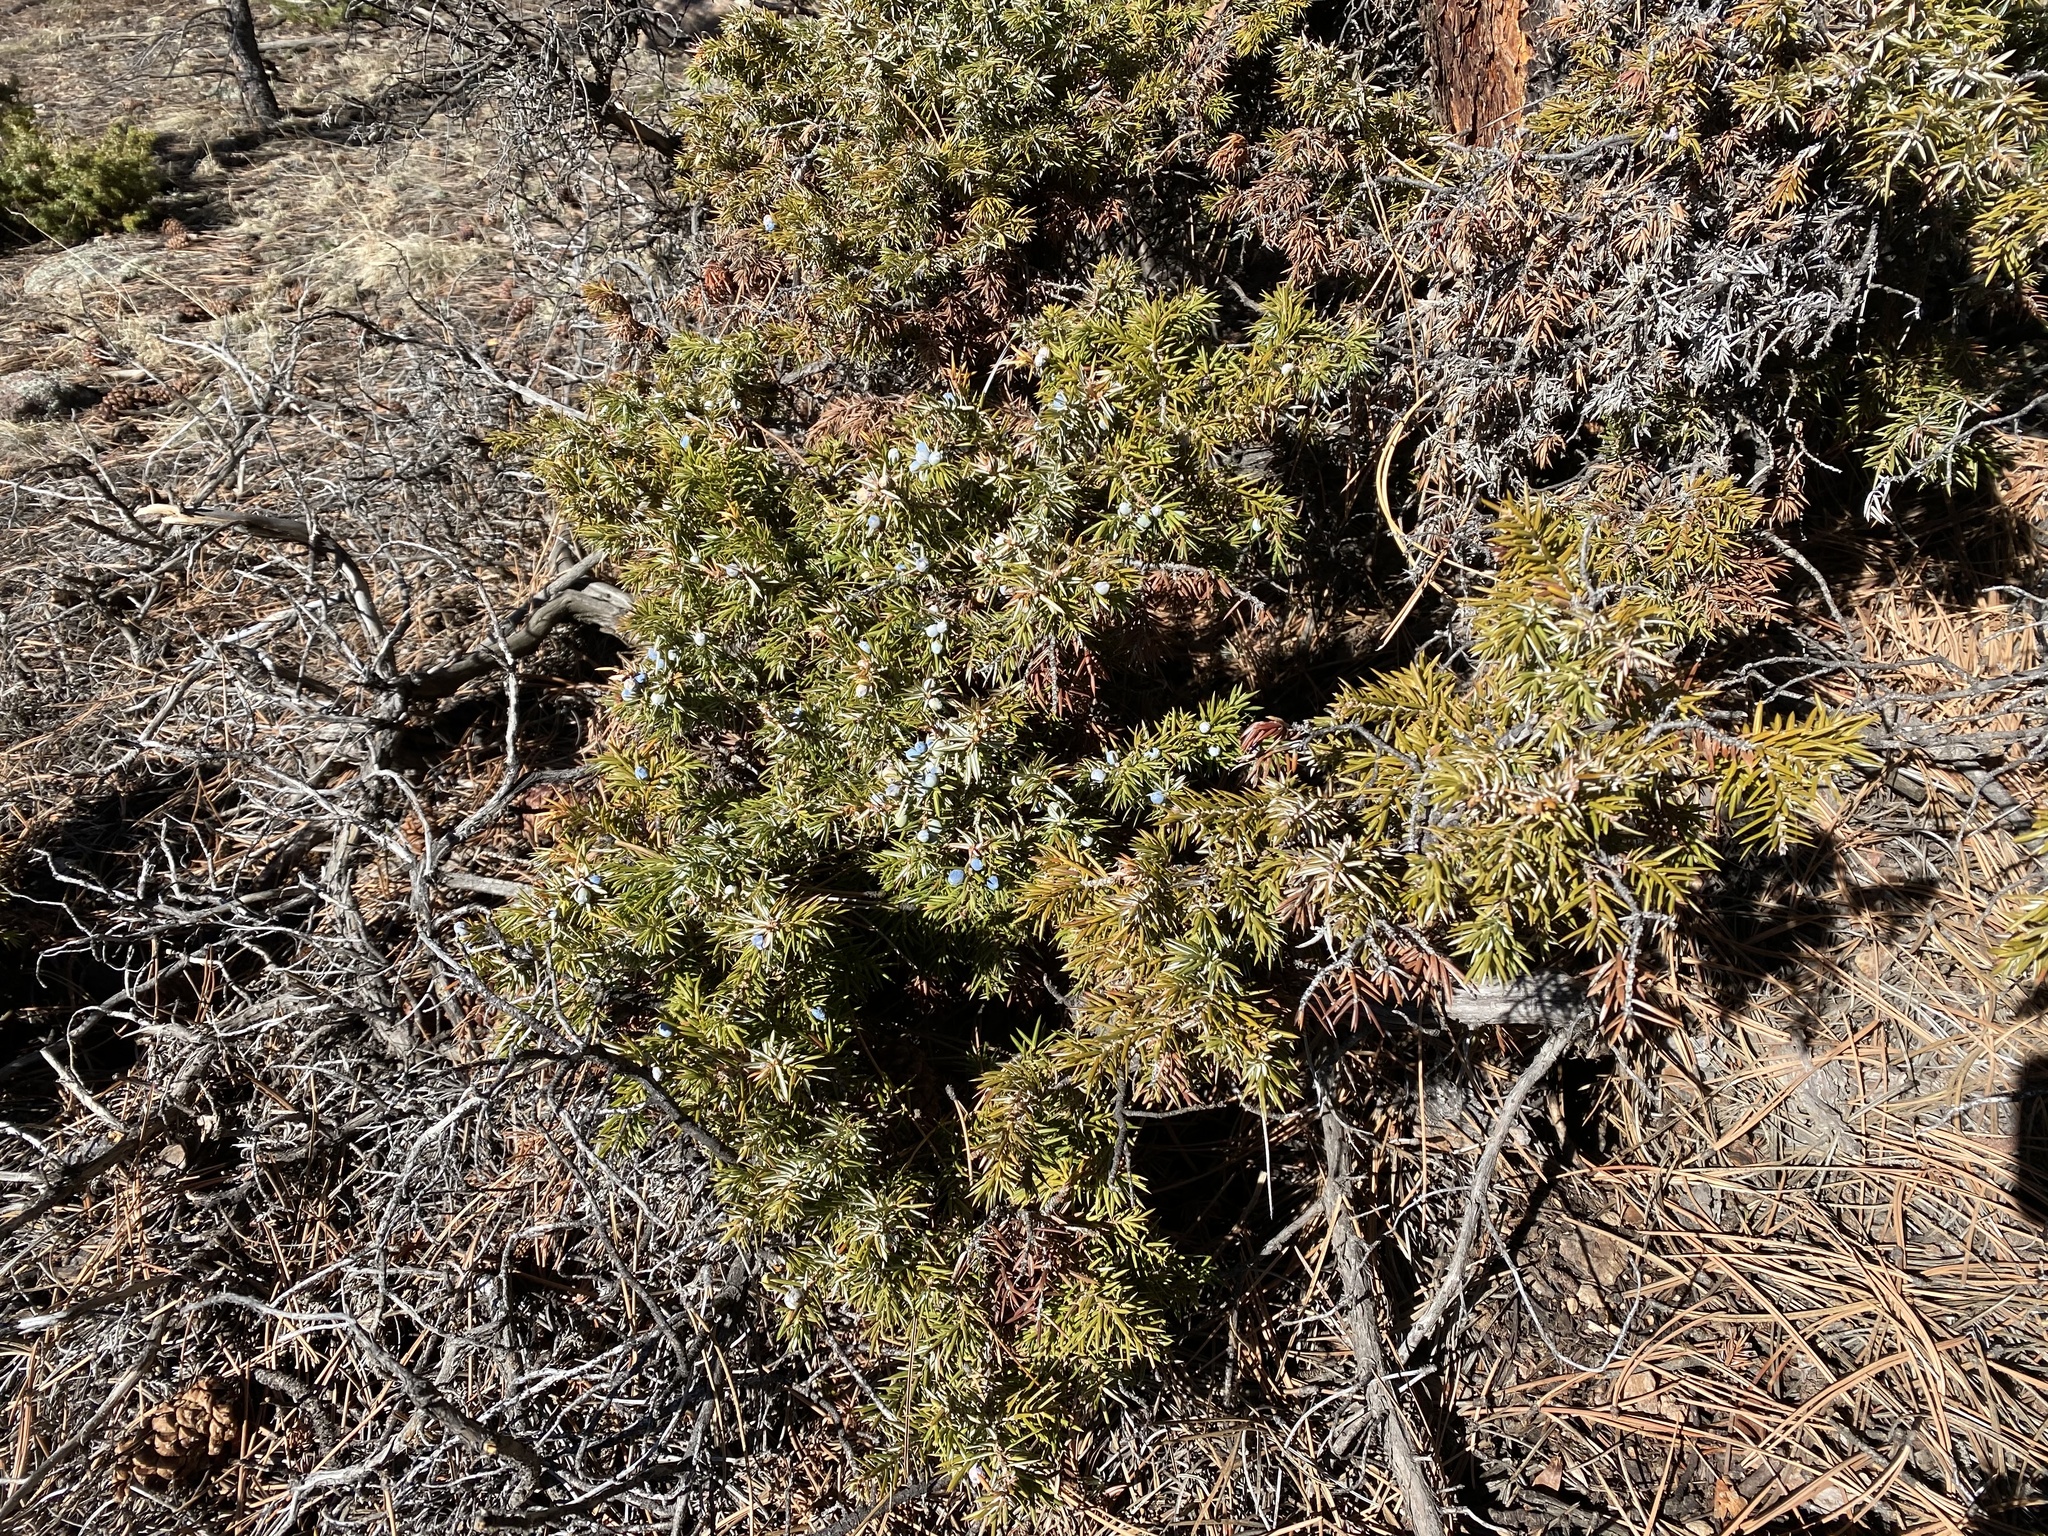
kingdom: Plantae
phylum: Tracheophyta
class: Pinopsida
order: Pinales
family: Cupressaceae
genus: Juniperus
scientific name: Juniperus communis
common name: Common juniper
